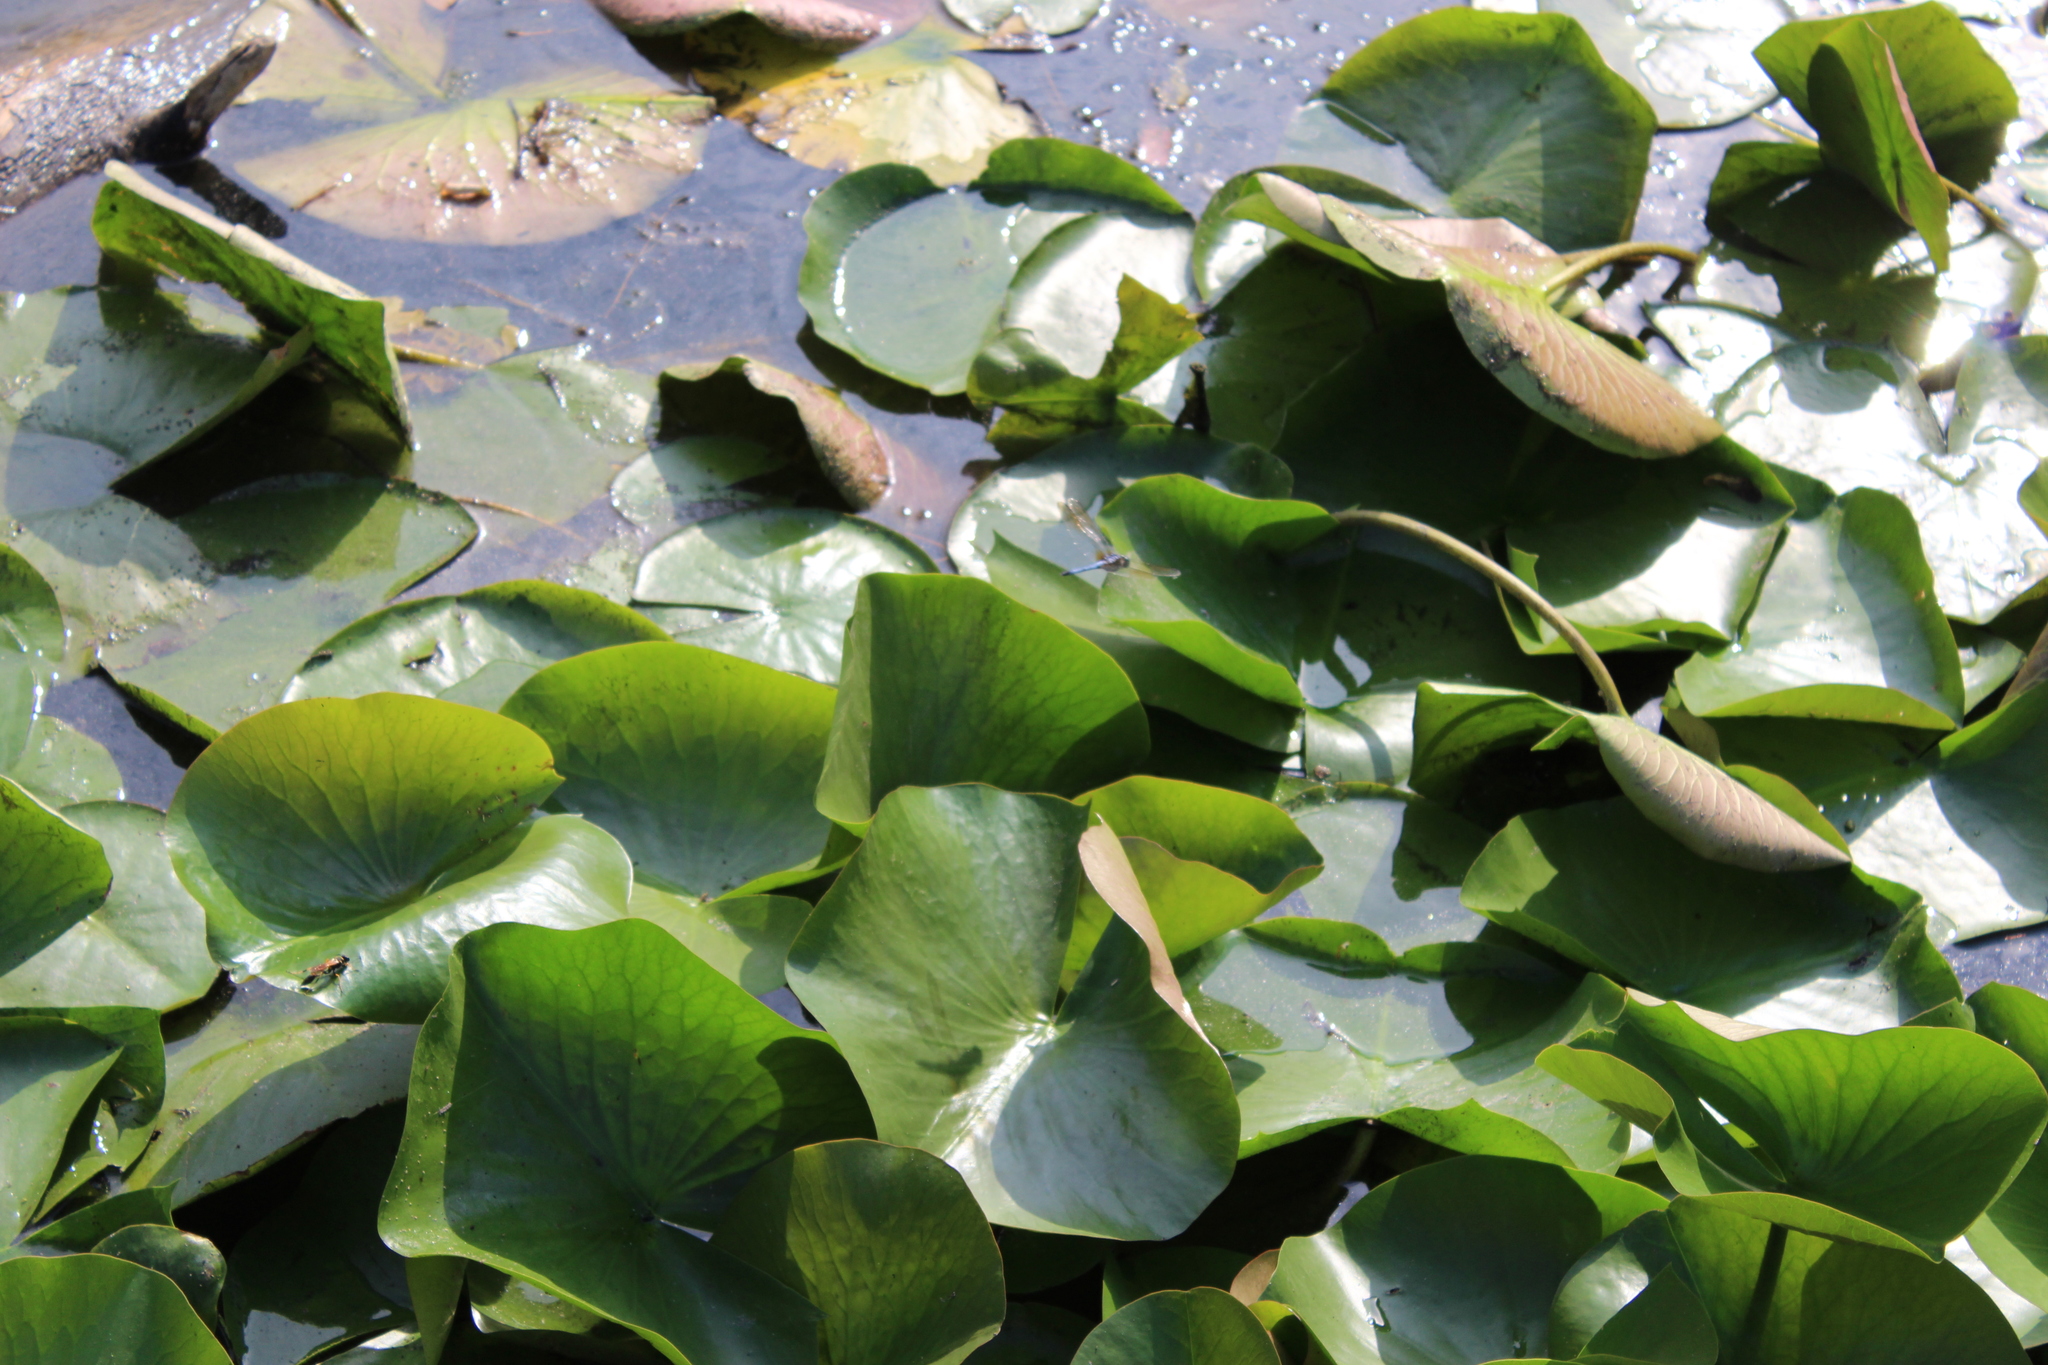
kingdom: Animalia
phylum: Arthropoda
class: Insecta
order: Odonata
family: Libellulidae
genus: Pachydiplax
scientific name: Pachydiplax longipennis
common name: Blue dasher
